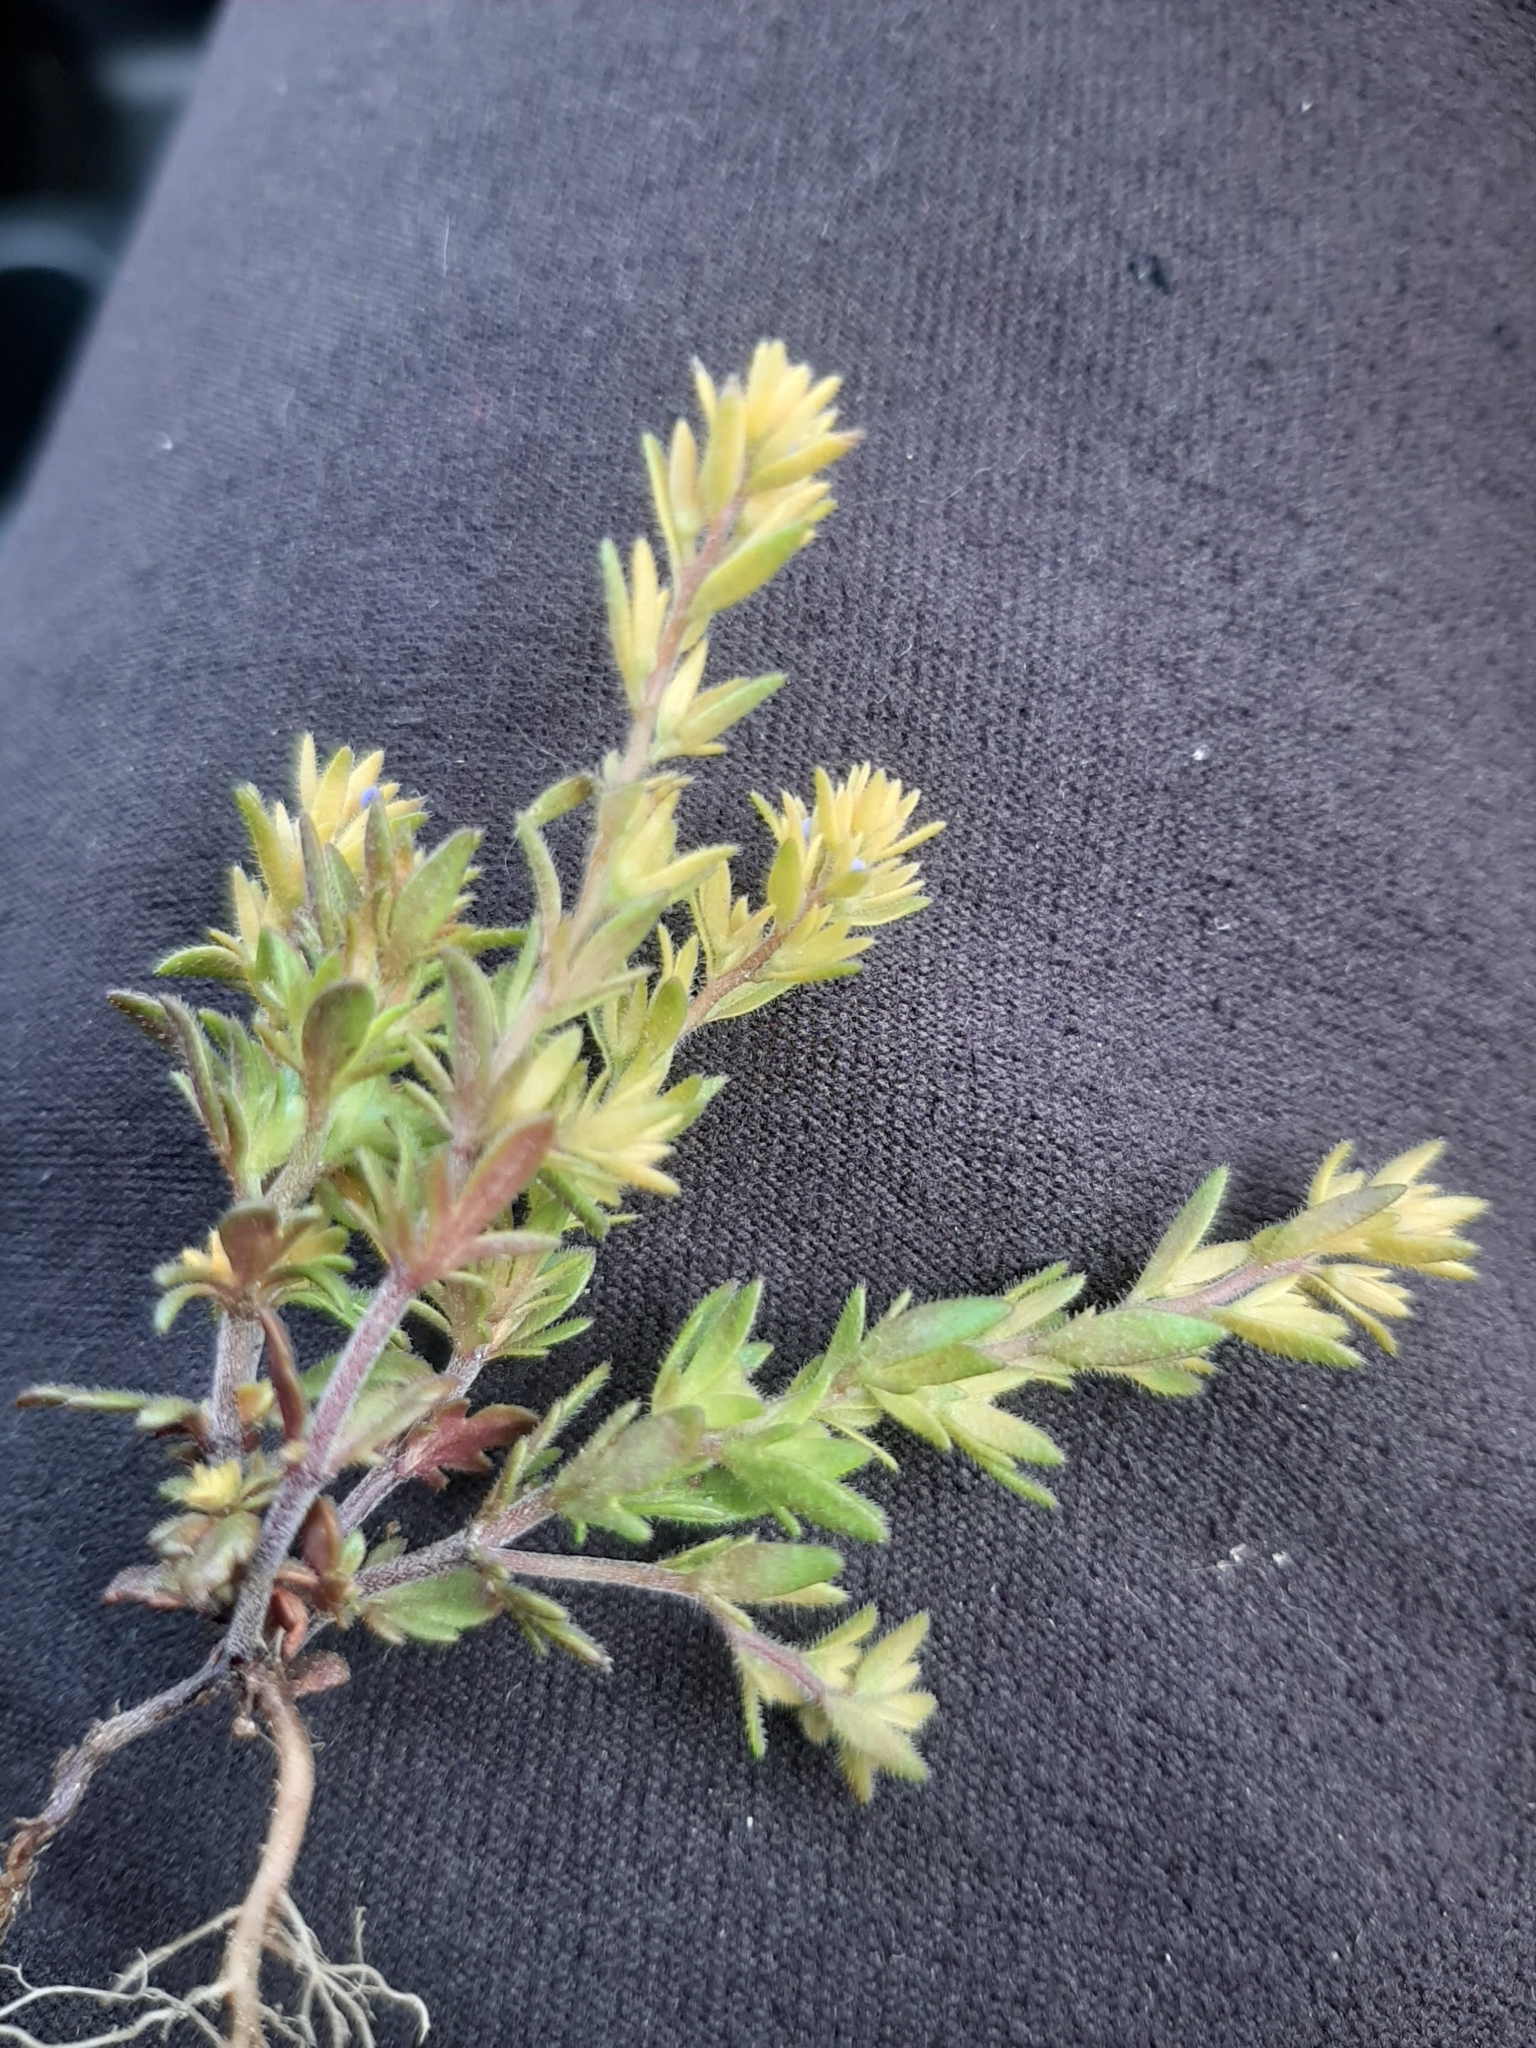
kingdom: Plantae
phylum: Tracheophyta
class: Magnoliopsida
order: Lamiales
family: Plantaginaceae
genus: Veronica
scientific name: Veronica verna
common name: Spring speedwell
